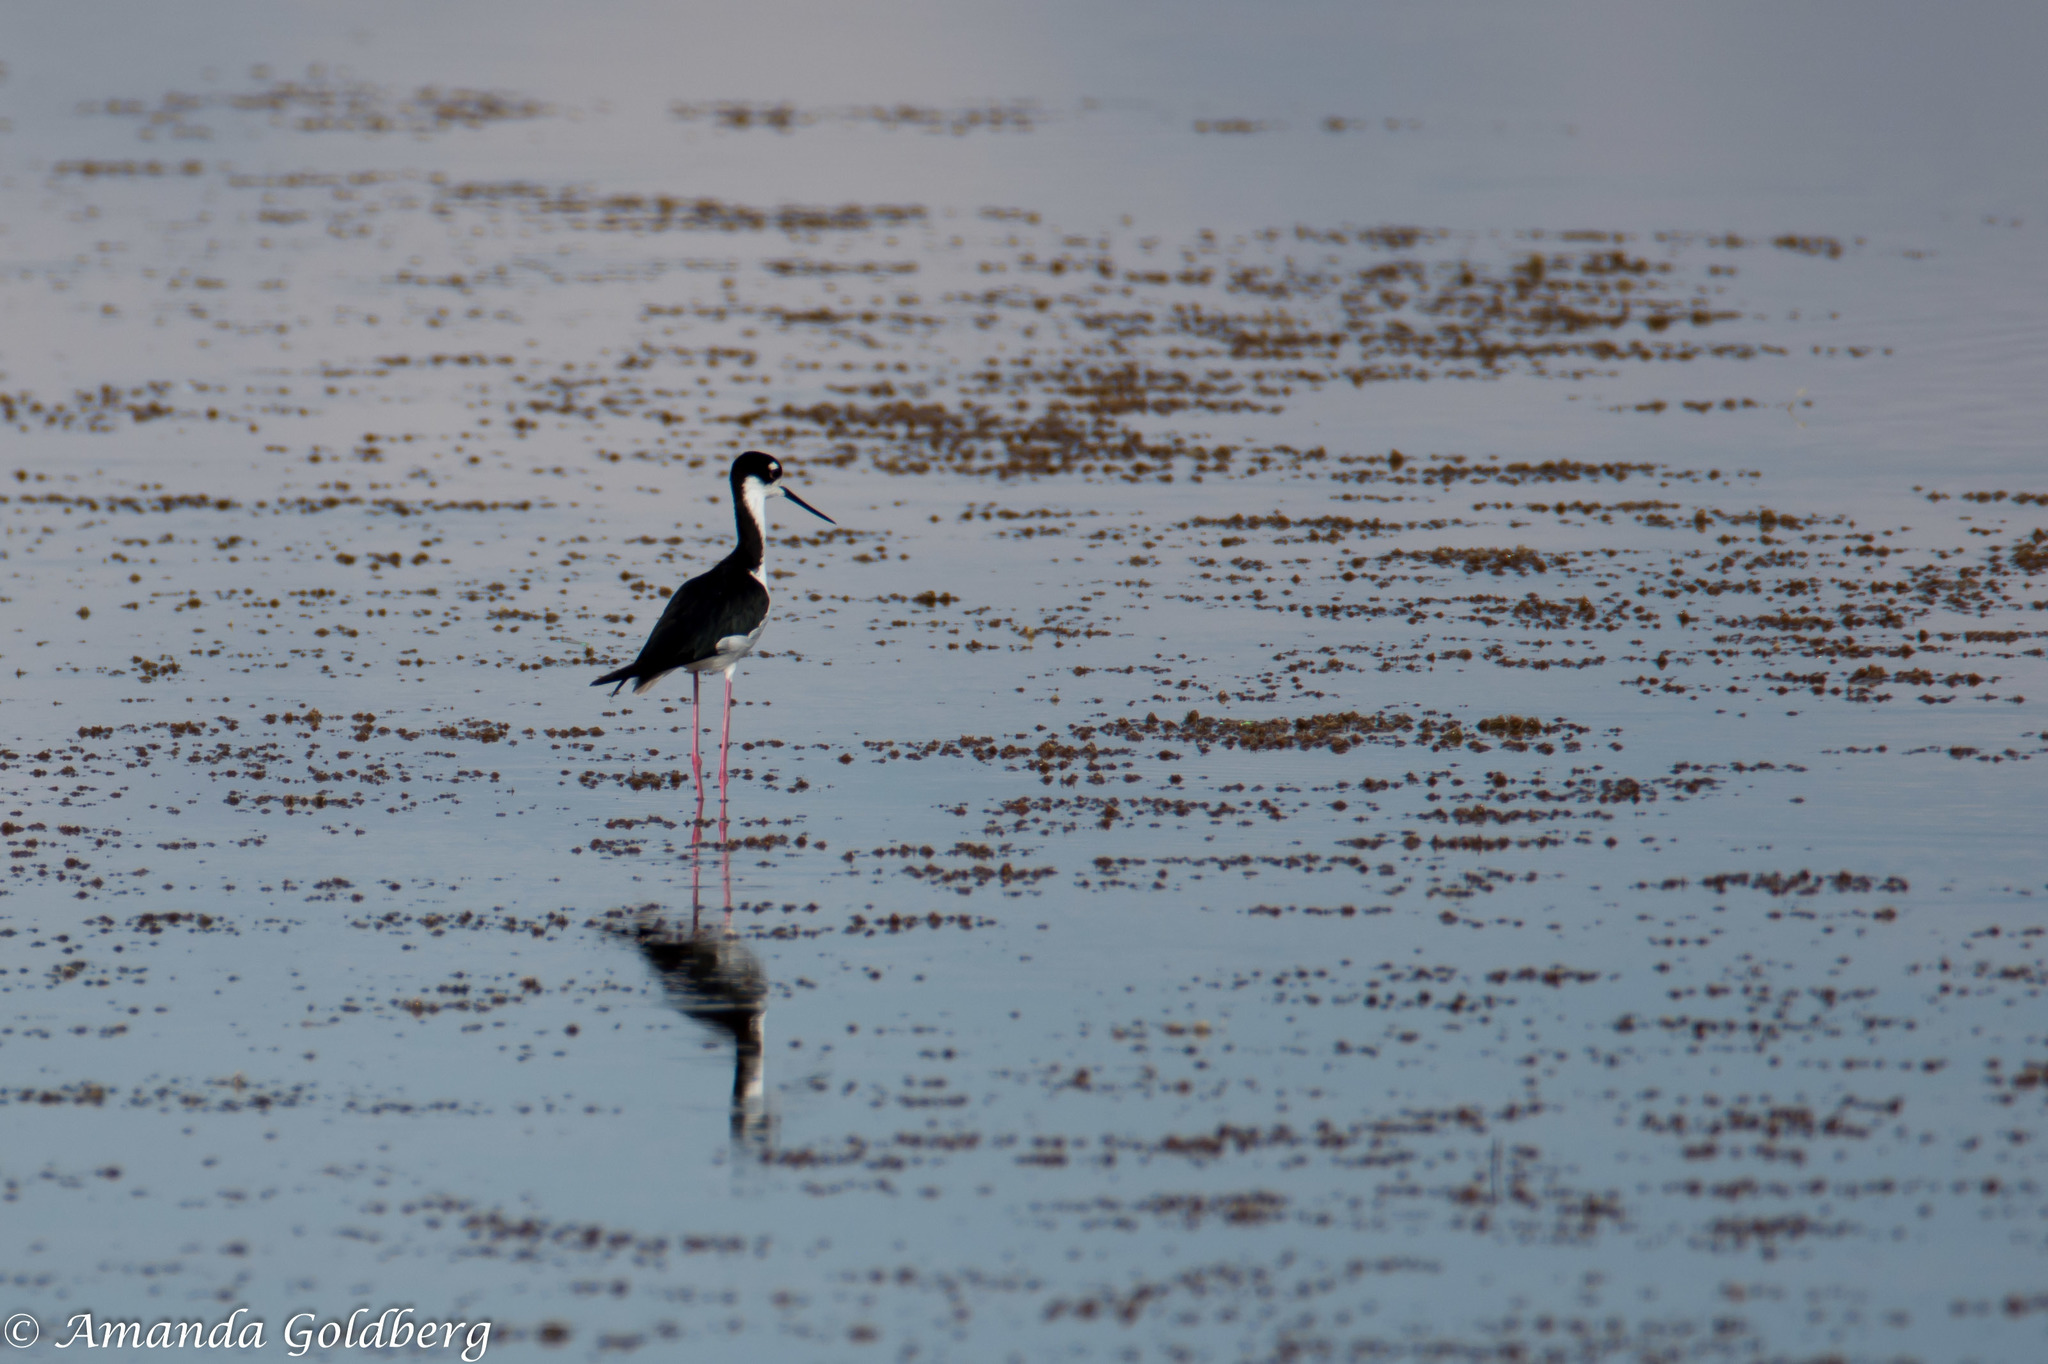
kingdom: Animalia
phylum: Chordata
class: Aves
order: Charadriiformes
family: Recurvirostridae
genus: Himantopus
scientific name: Himantopus mexicanus
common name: Black-necked stilt
